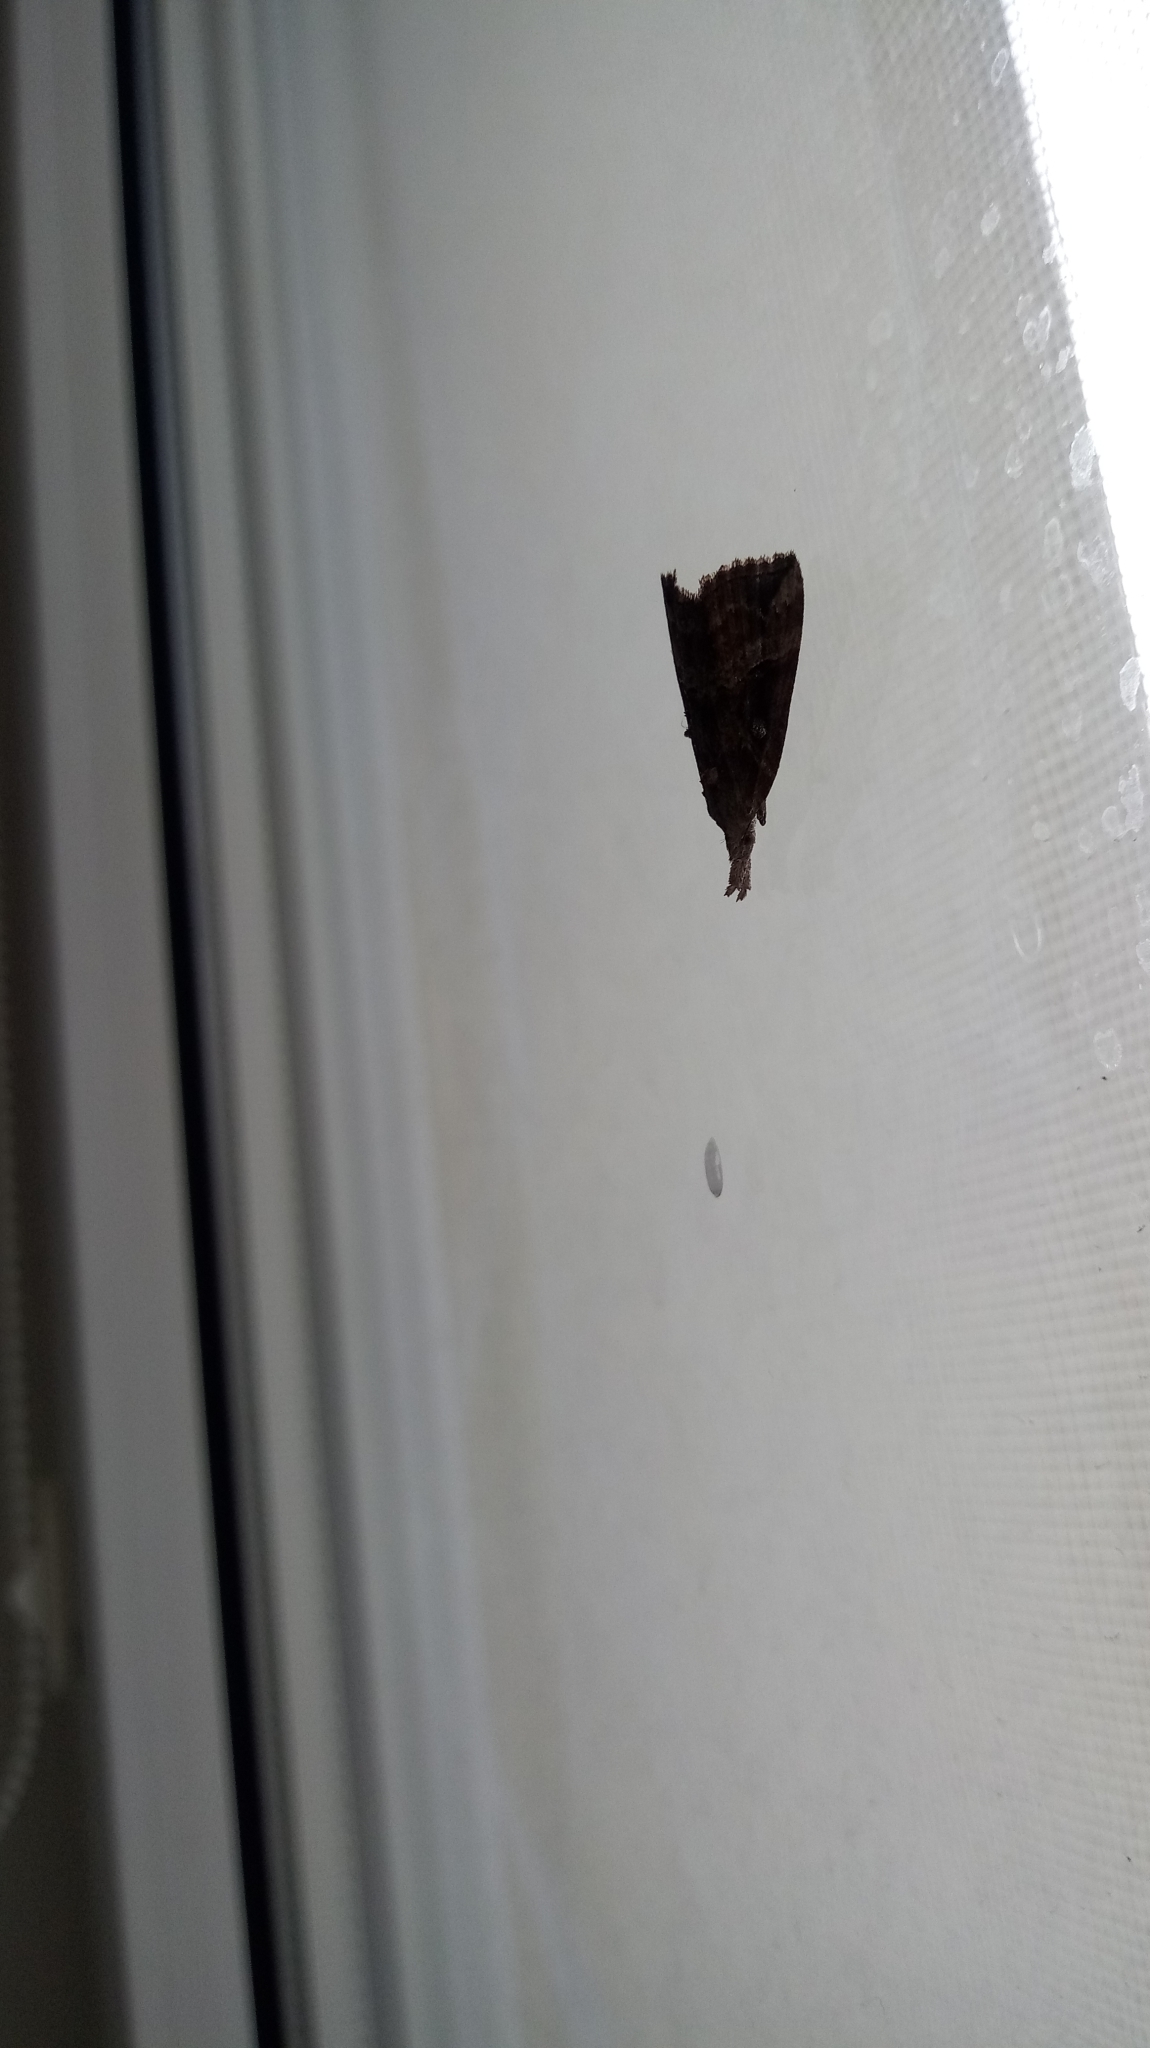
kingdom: Animalia
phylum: Arthropoda
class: Insecta
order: Lepidoptera
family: Erebidae
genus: Hypena
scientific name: Hypena rostralis
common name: Buttoned snout
